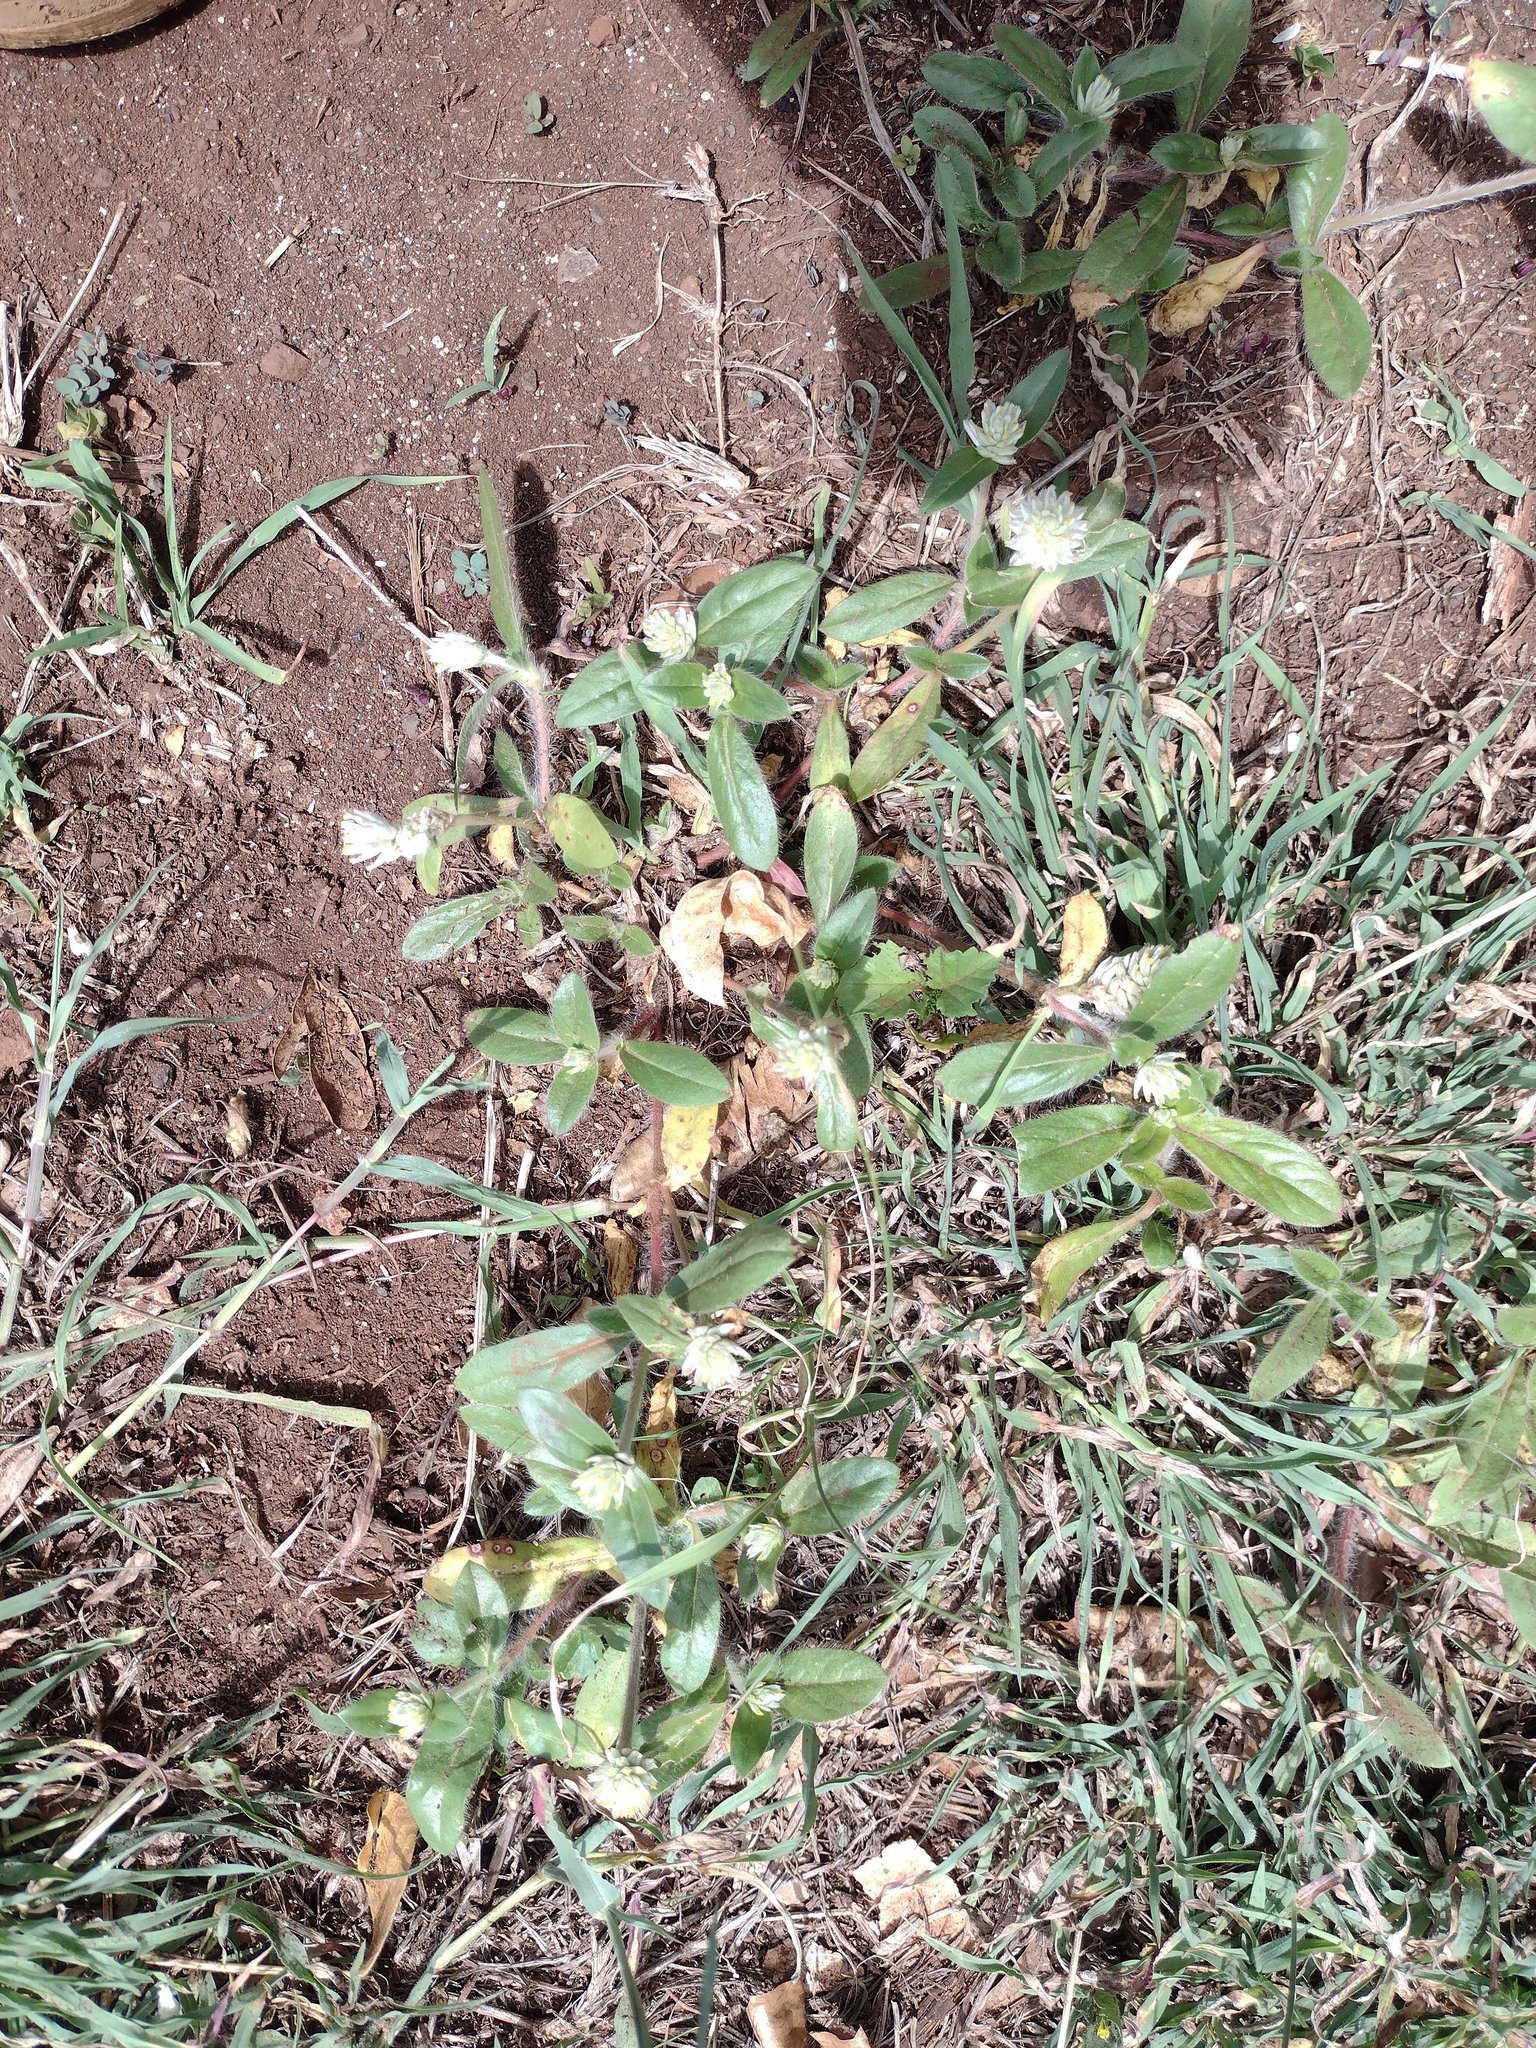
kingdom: Plantae
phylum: Tracheophyta
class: Magnoliopsida
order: Caryophyllales
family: Amaranthaceae
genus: Gomphrena
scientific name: Gomphrena celosioides
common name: Gomphrena-weed
